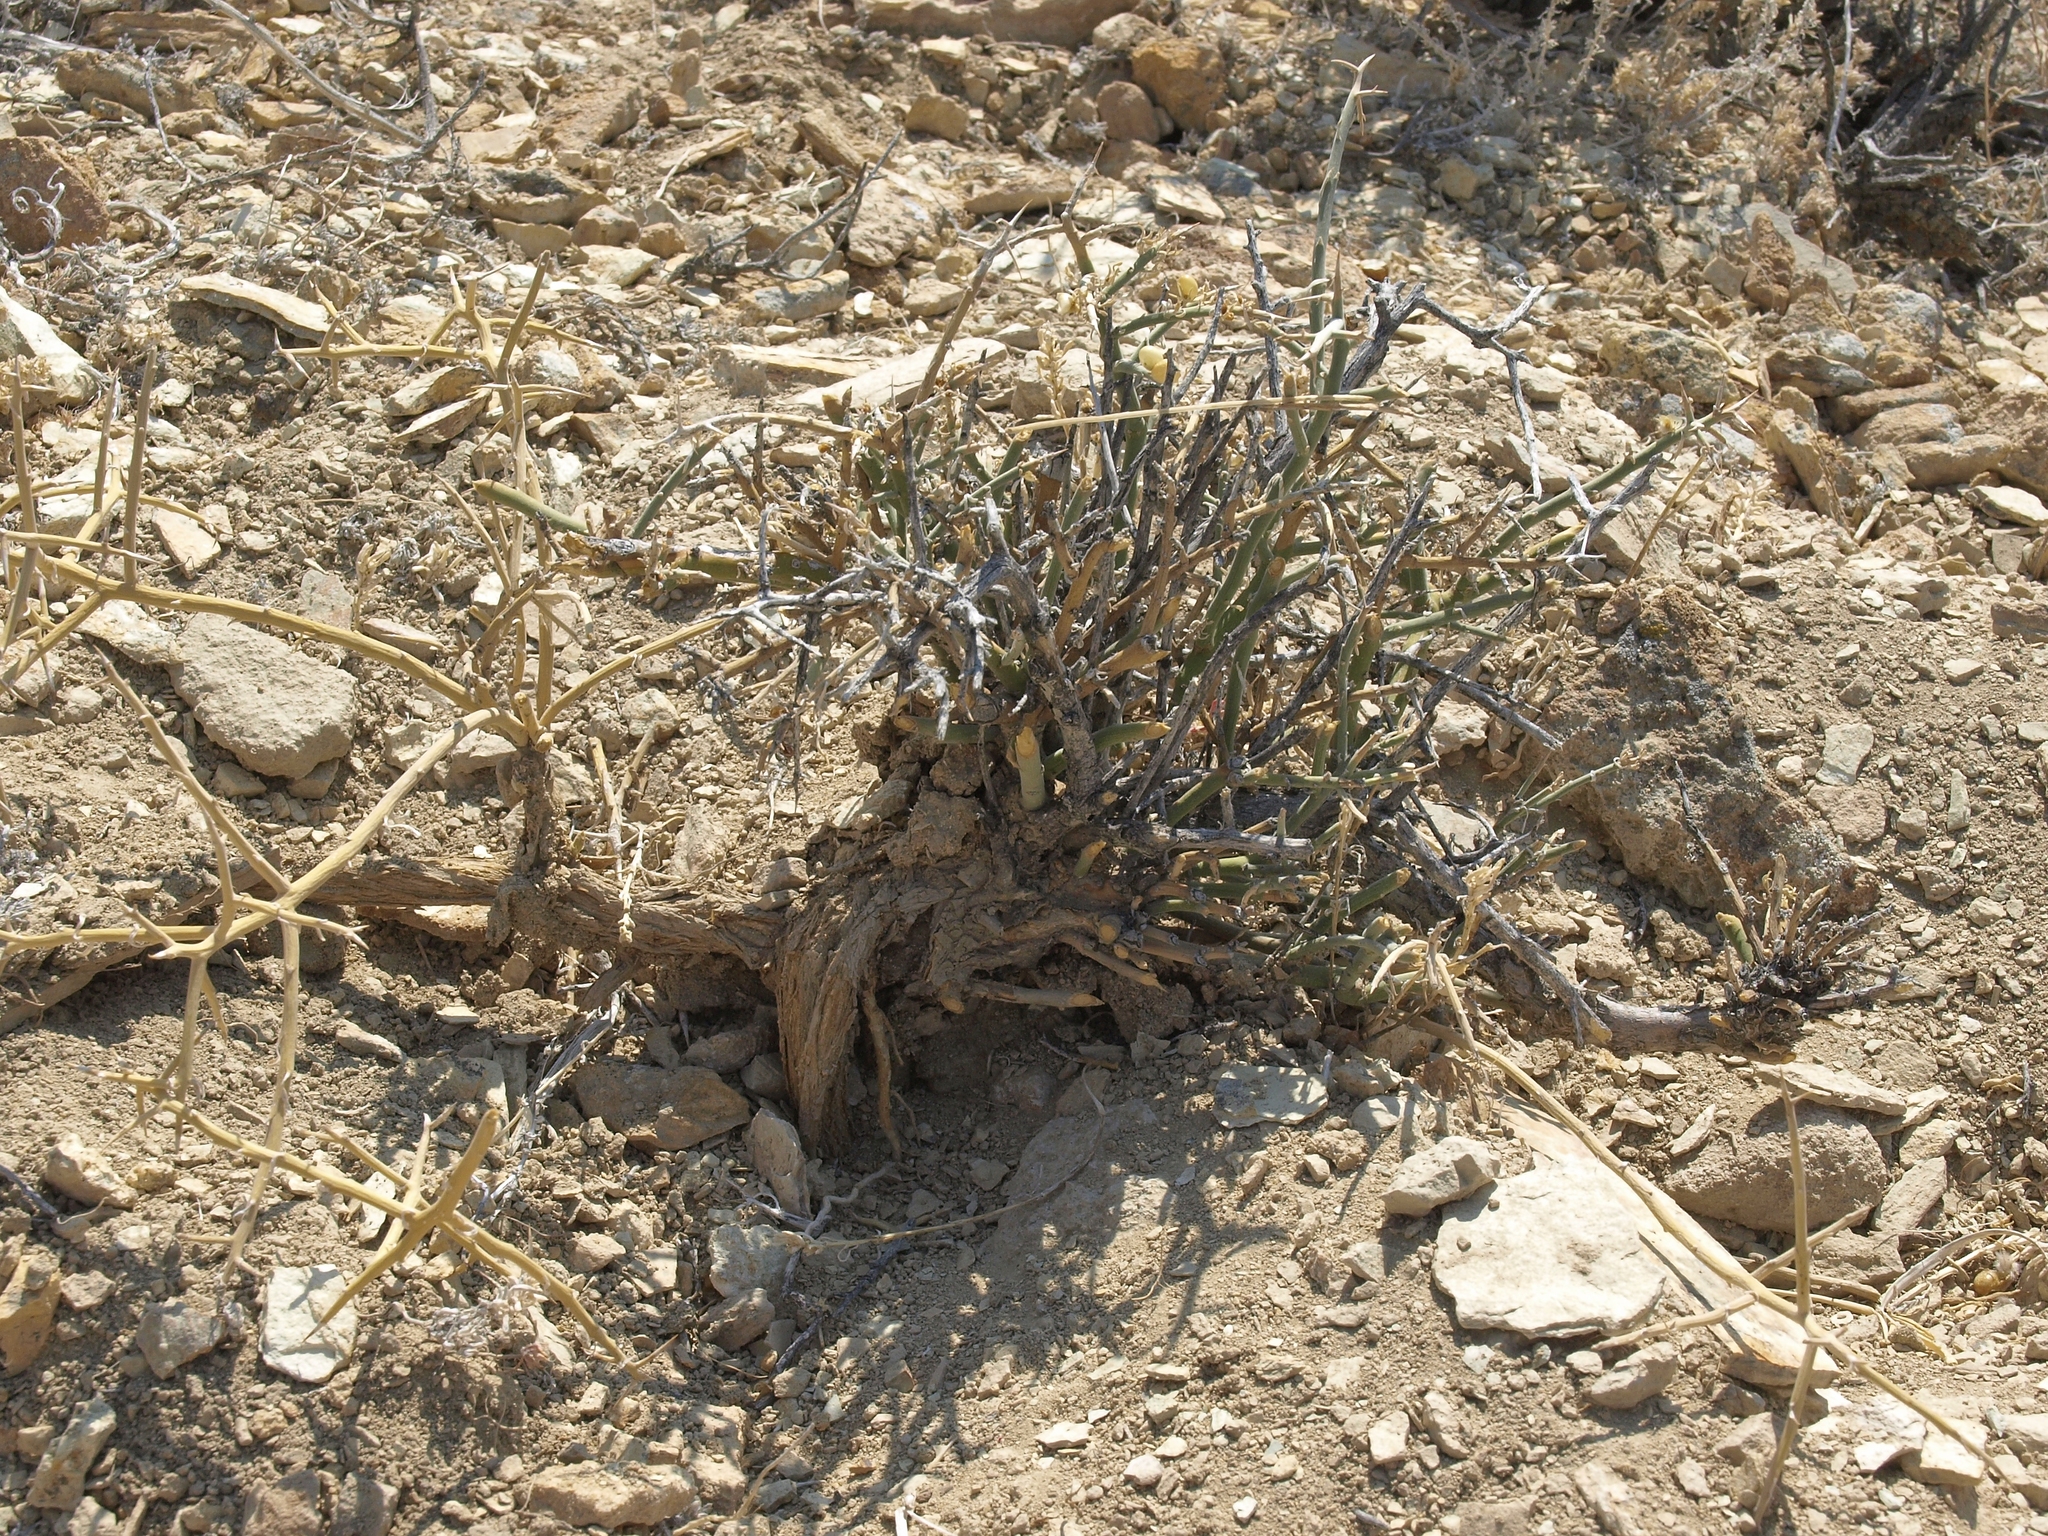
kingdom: Plantae
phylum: Tracheophyta
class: Magnoliopsida
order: Lamiales
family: Oleaceae
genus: Menodora
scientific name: Menodora spinescens
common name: Spiny menodora
